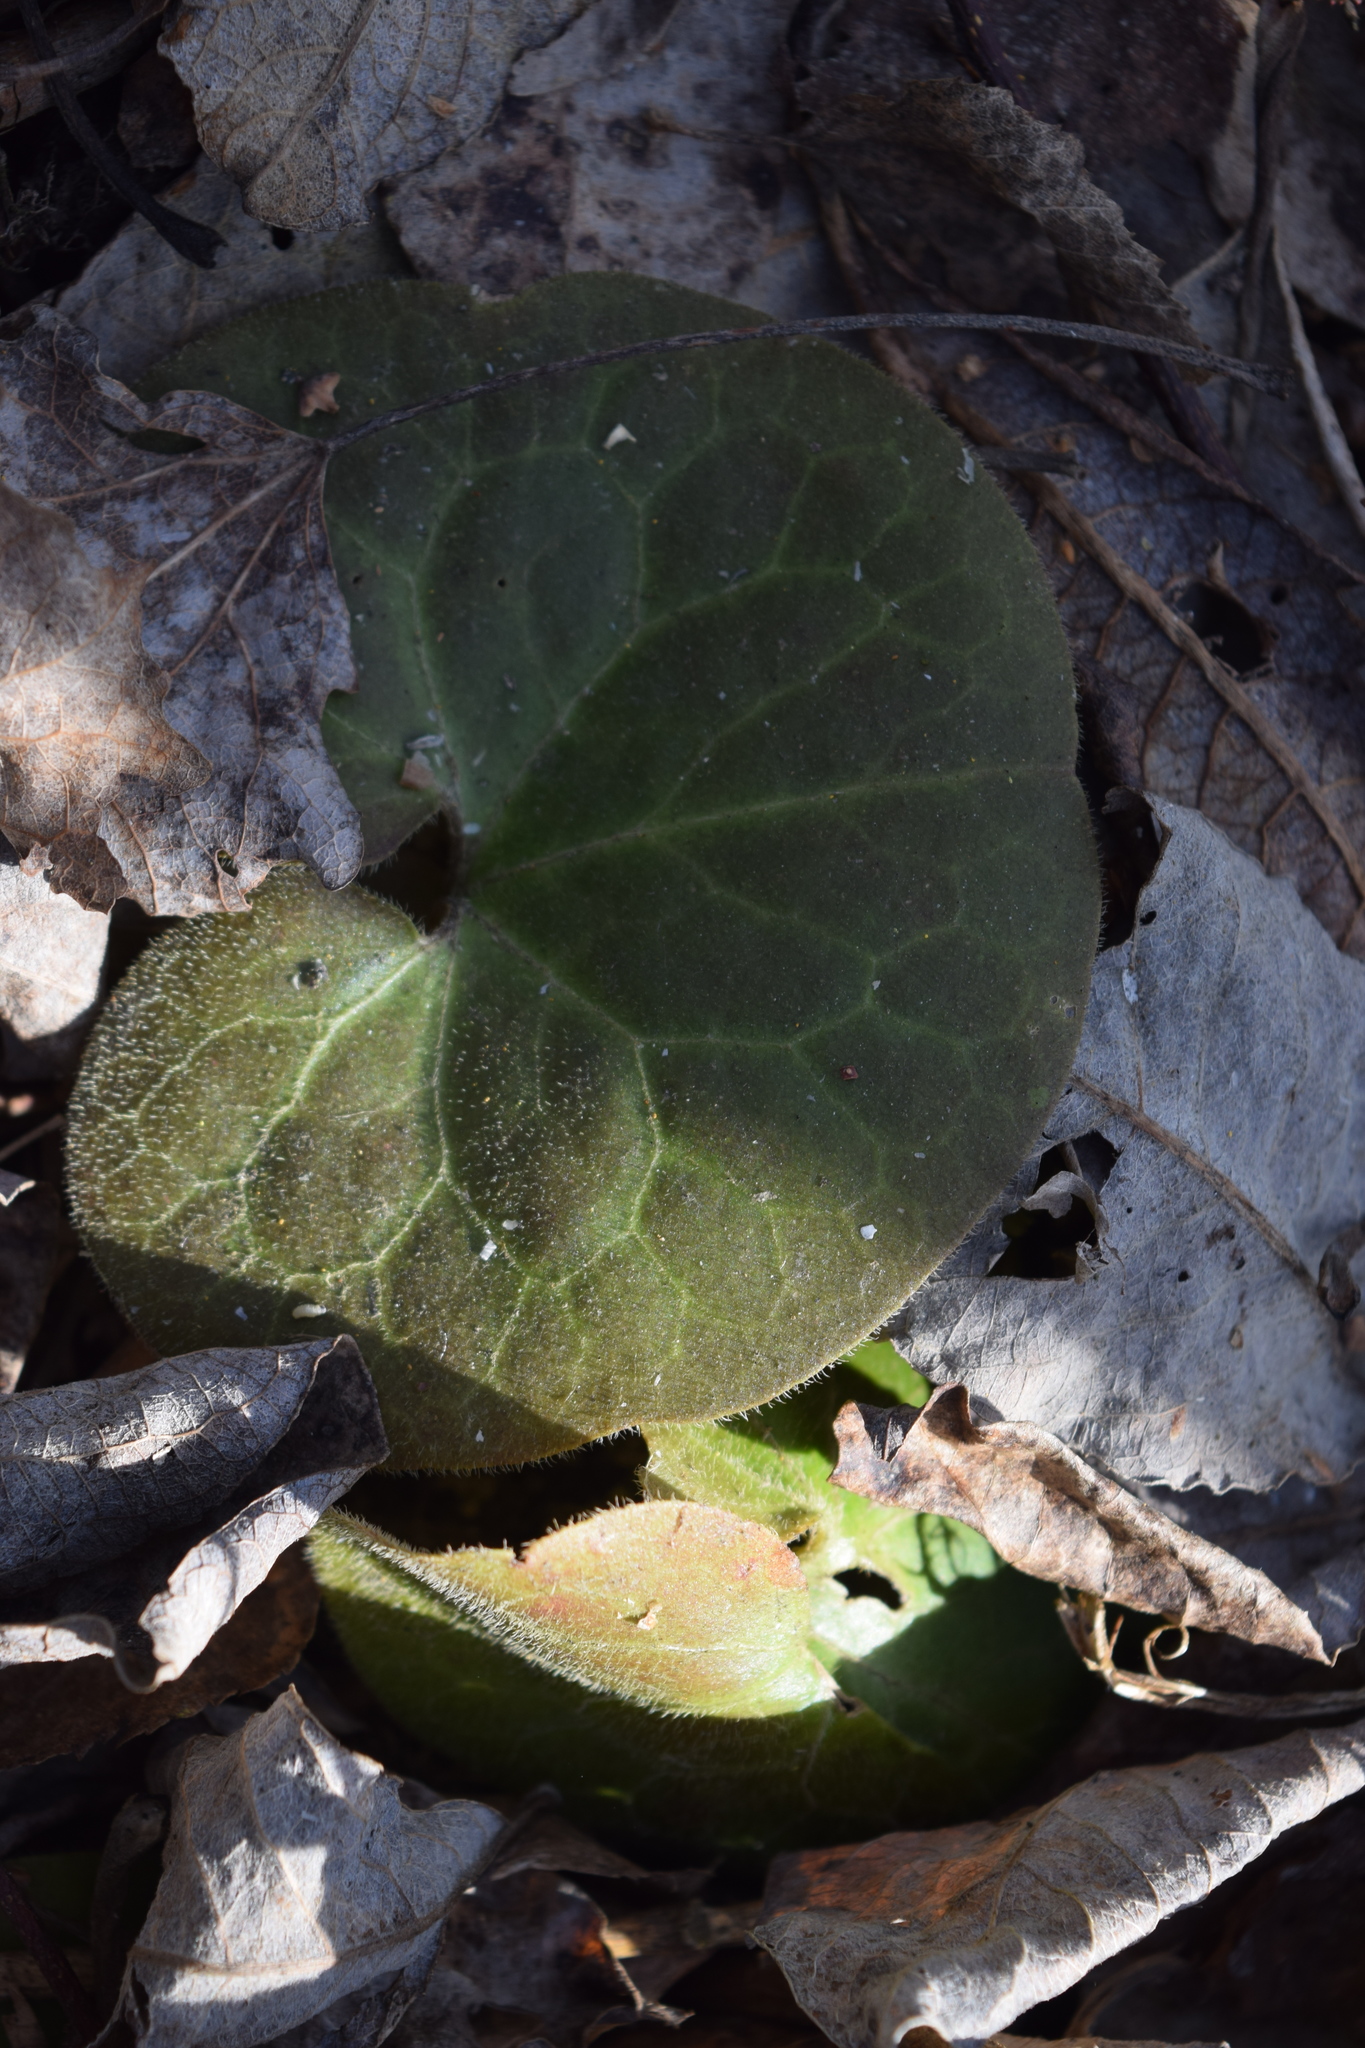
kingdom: Plantae
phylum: Tracheophyta
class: Magnoliopsida
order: Piperales
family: Aristolochiaceae
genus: Asarum
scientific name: Asarum europaeum
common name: Asarabacca
